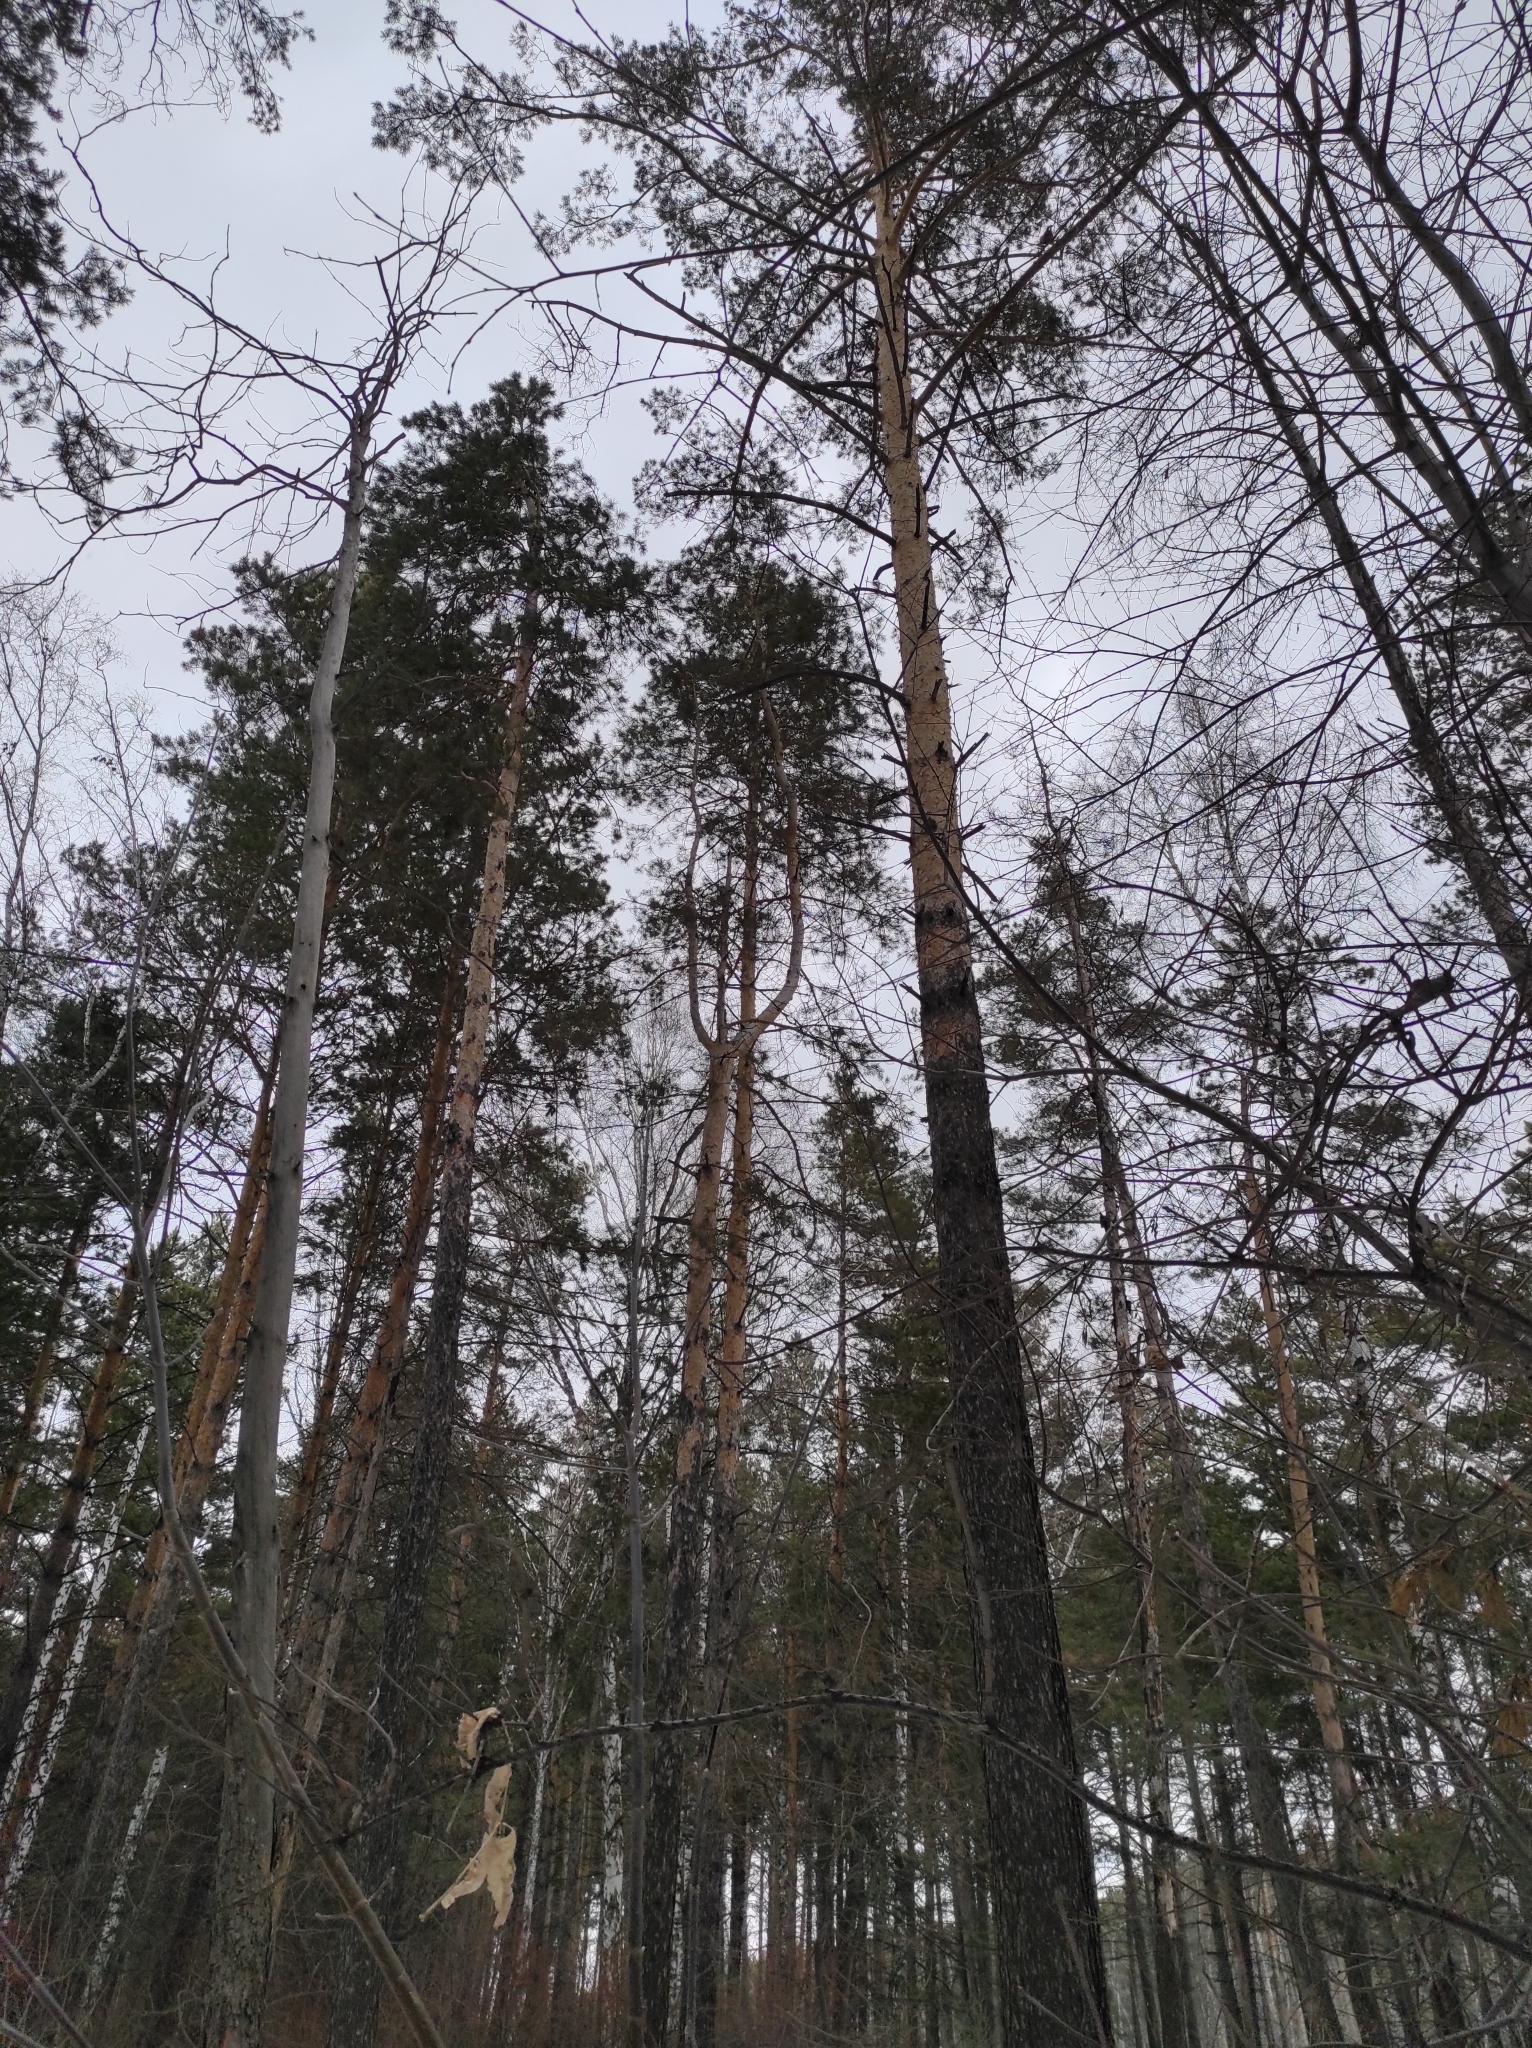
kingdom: Plantae
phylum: Tracheophyta
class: Pinopsida
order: Pinales
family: Pinaceae
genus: Pinus
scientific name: Pinus sylvestris
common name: Scots pine
